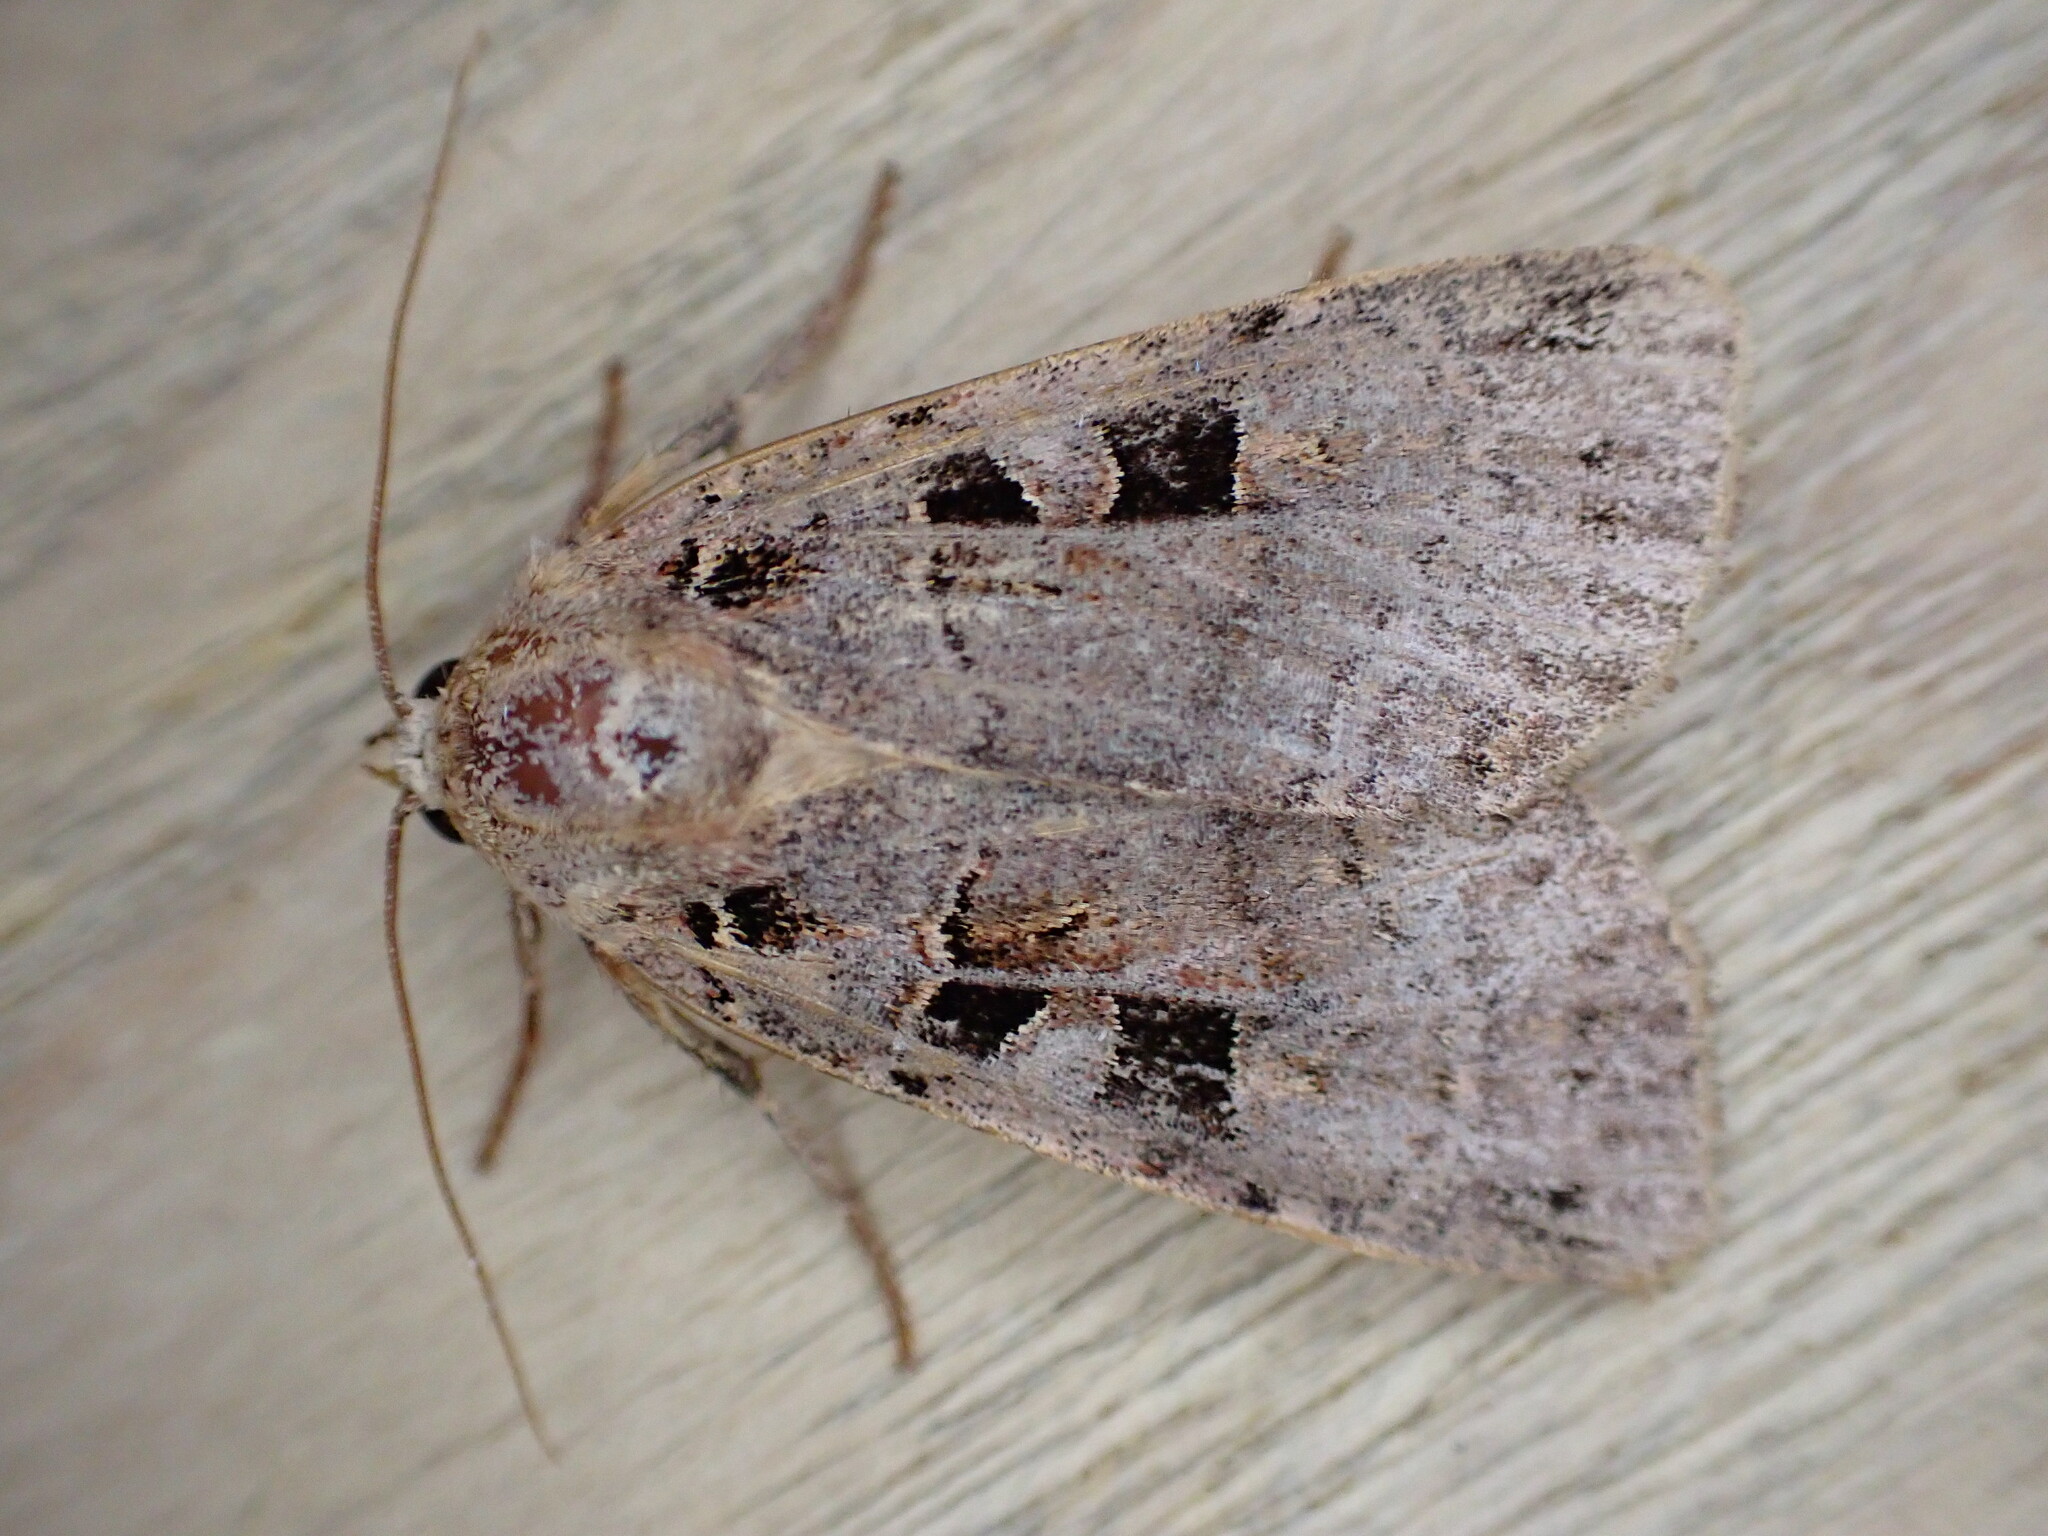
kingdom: Animalia
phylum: Arthropoda
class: Insecta
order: Lepidoptera
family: Noctuidae
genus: Xestia
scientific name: Xestia triangulum
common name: Double square-spot
